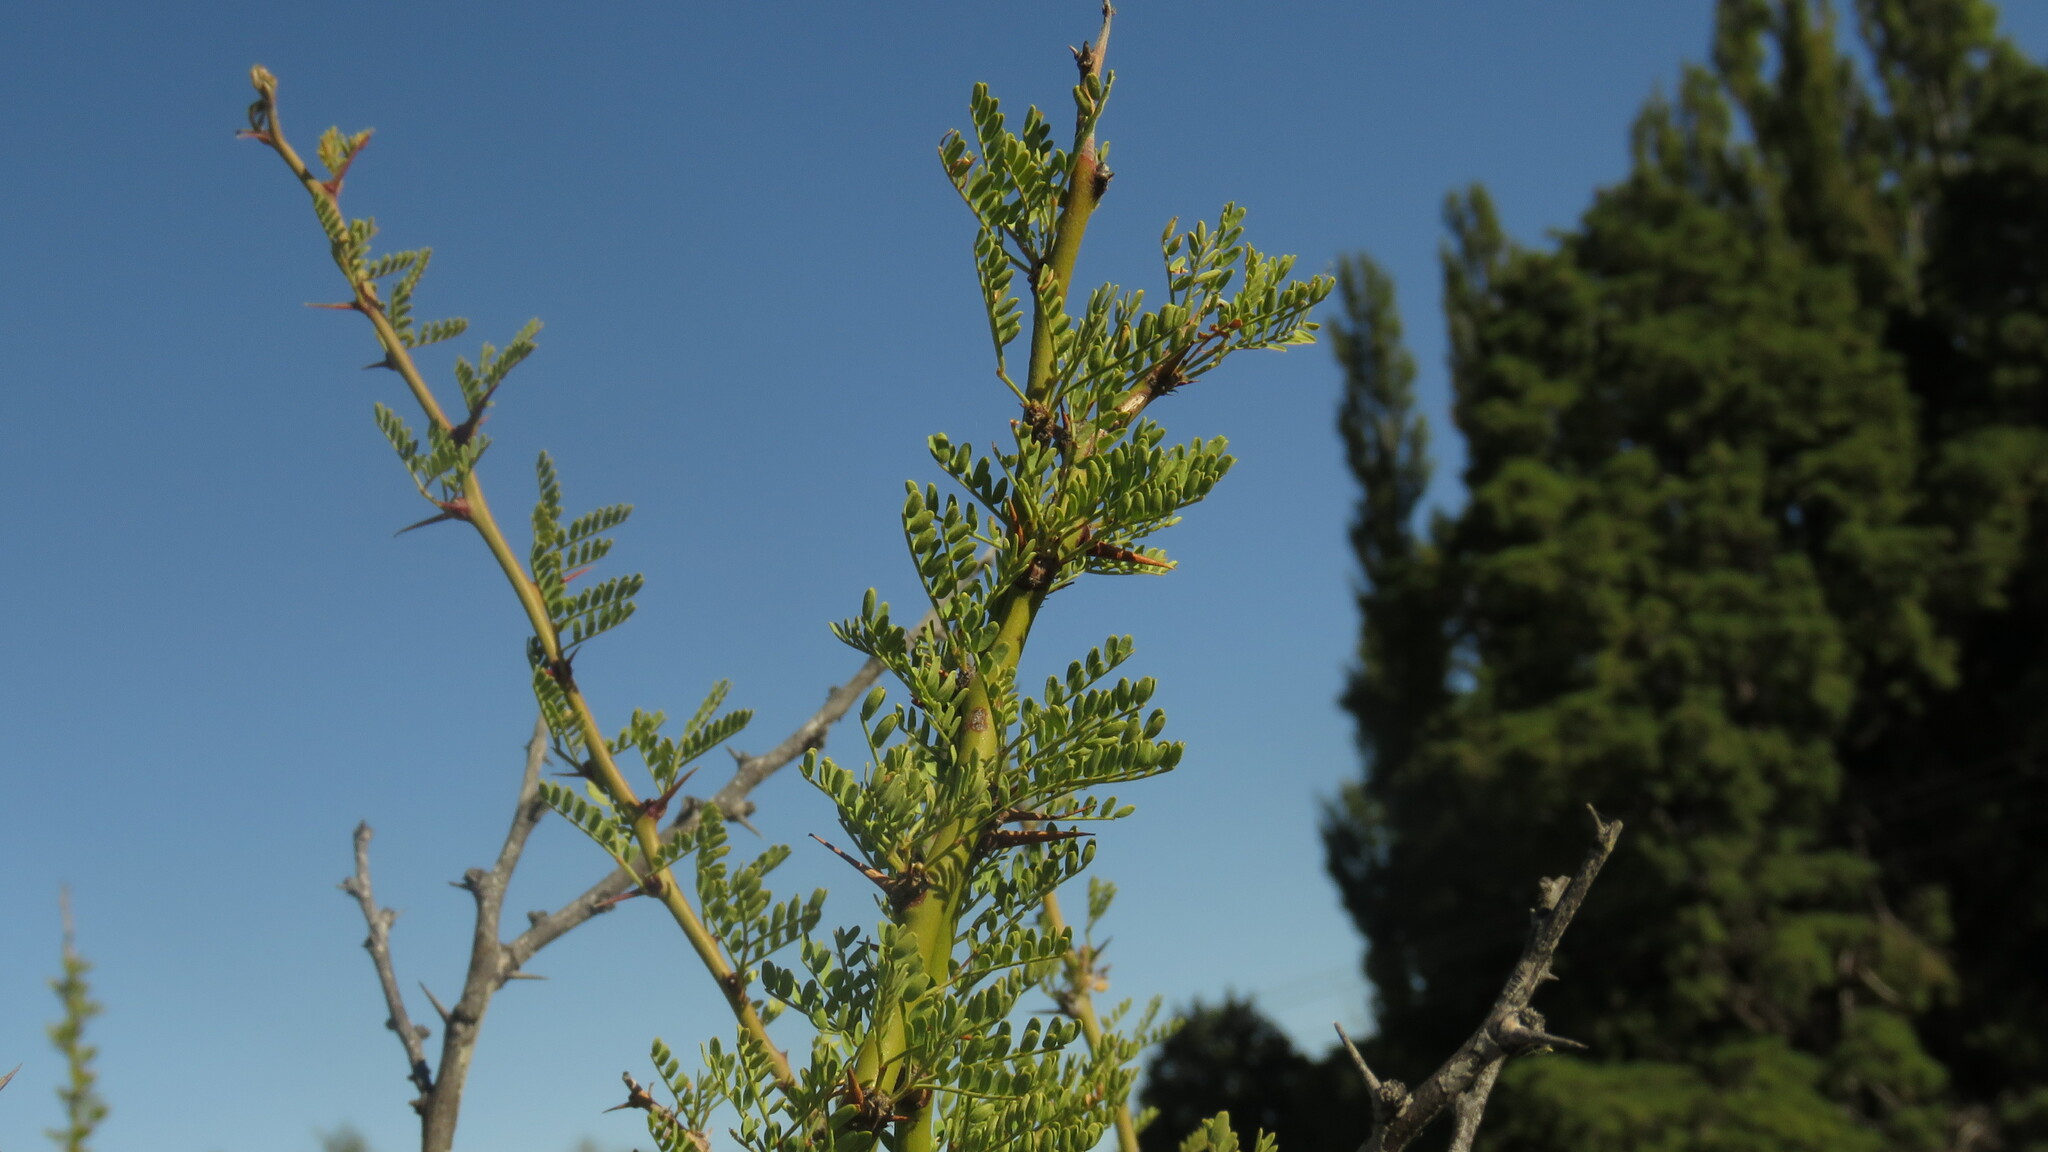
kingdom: Plantae
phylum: Tracheophyta
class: Magnoliopsida
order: Fabales
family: Fabaceae
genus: Parkinsonia
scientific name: Parkinsonia praecox
